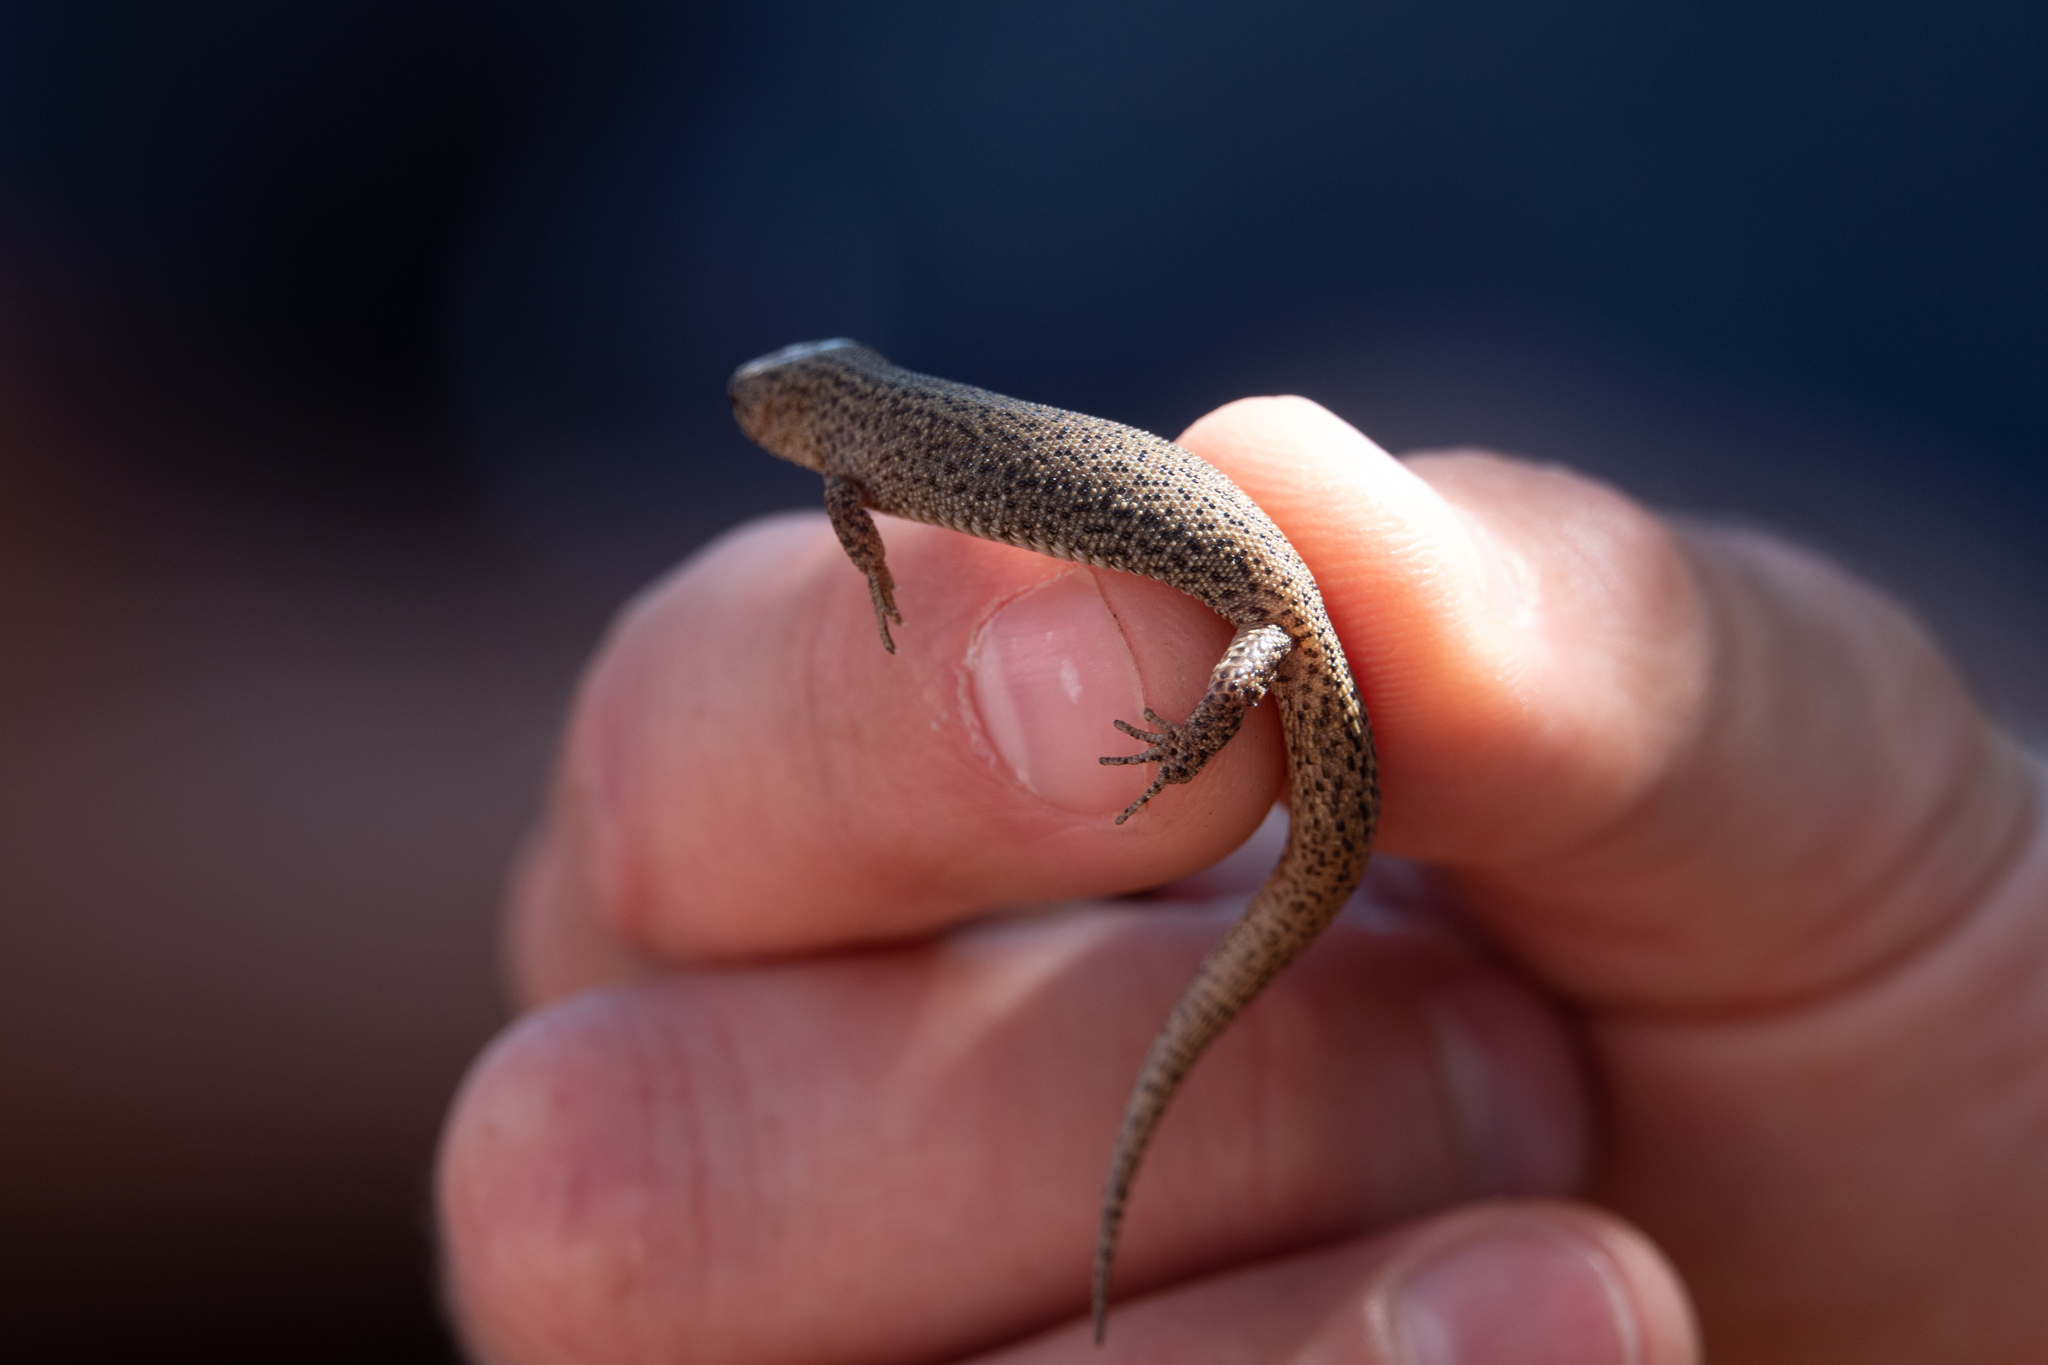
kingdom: Animalia
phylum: Chordata
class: Squamata
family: Xantusiidae
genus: Xantusia
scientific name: Xantusia vigilis
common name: Desert night lizard
